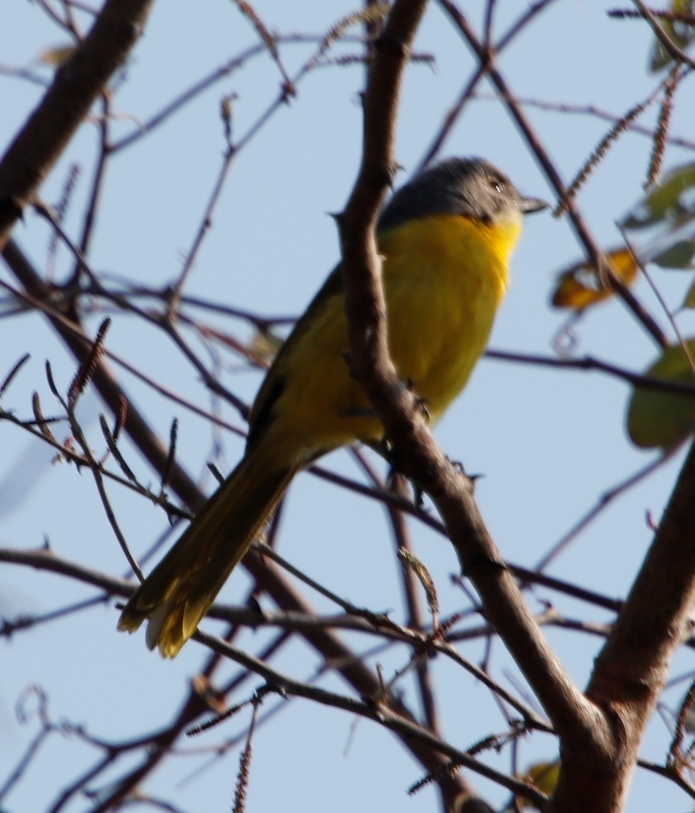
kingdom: Animalia
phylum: Chordata
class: Aves
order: Passeriformes
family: Malaconotidae
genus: Chlorophoneus
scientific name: Chlorophoneus sulfureopectus
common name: Orange-breasted bushshrike
